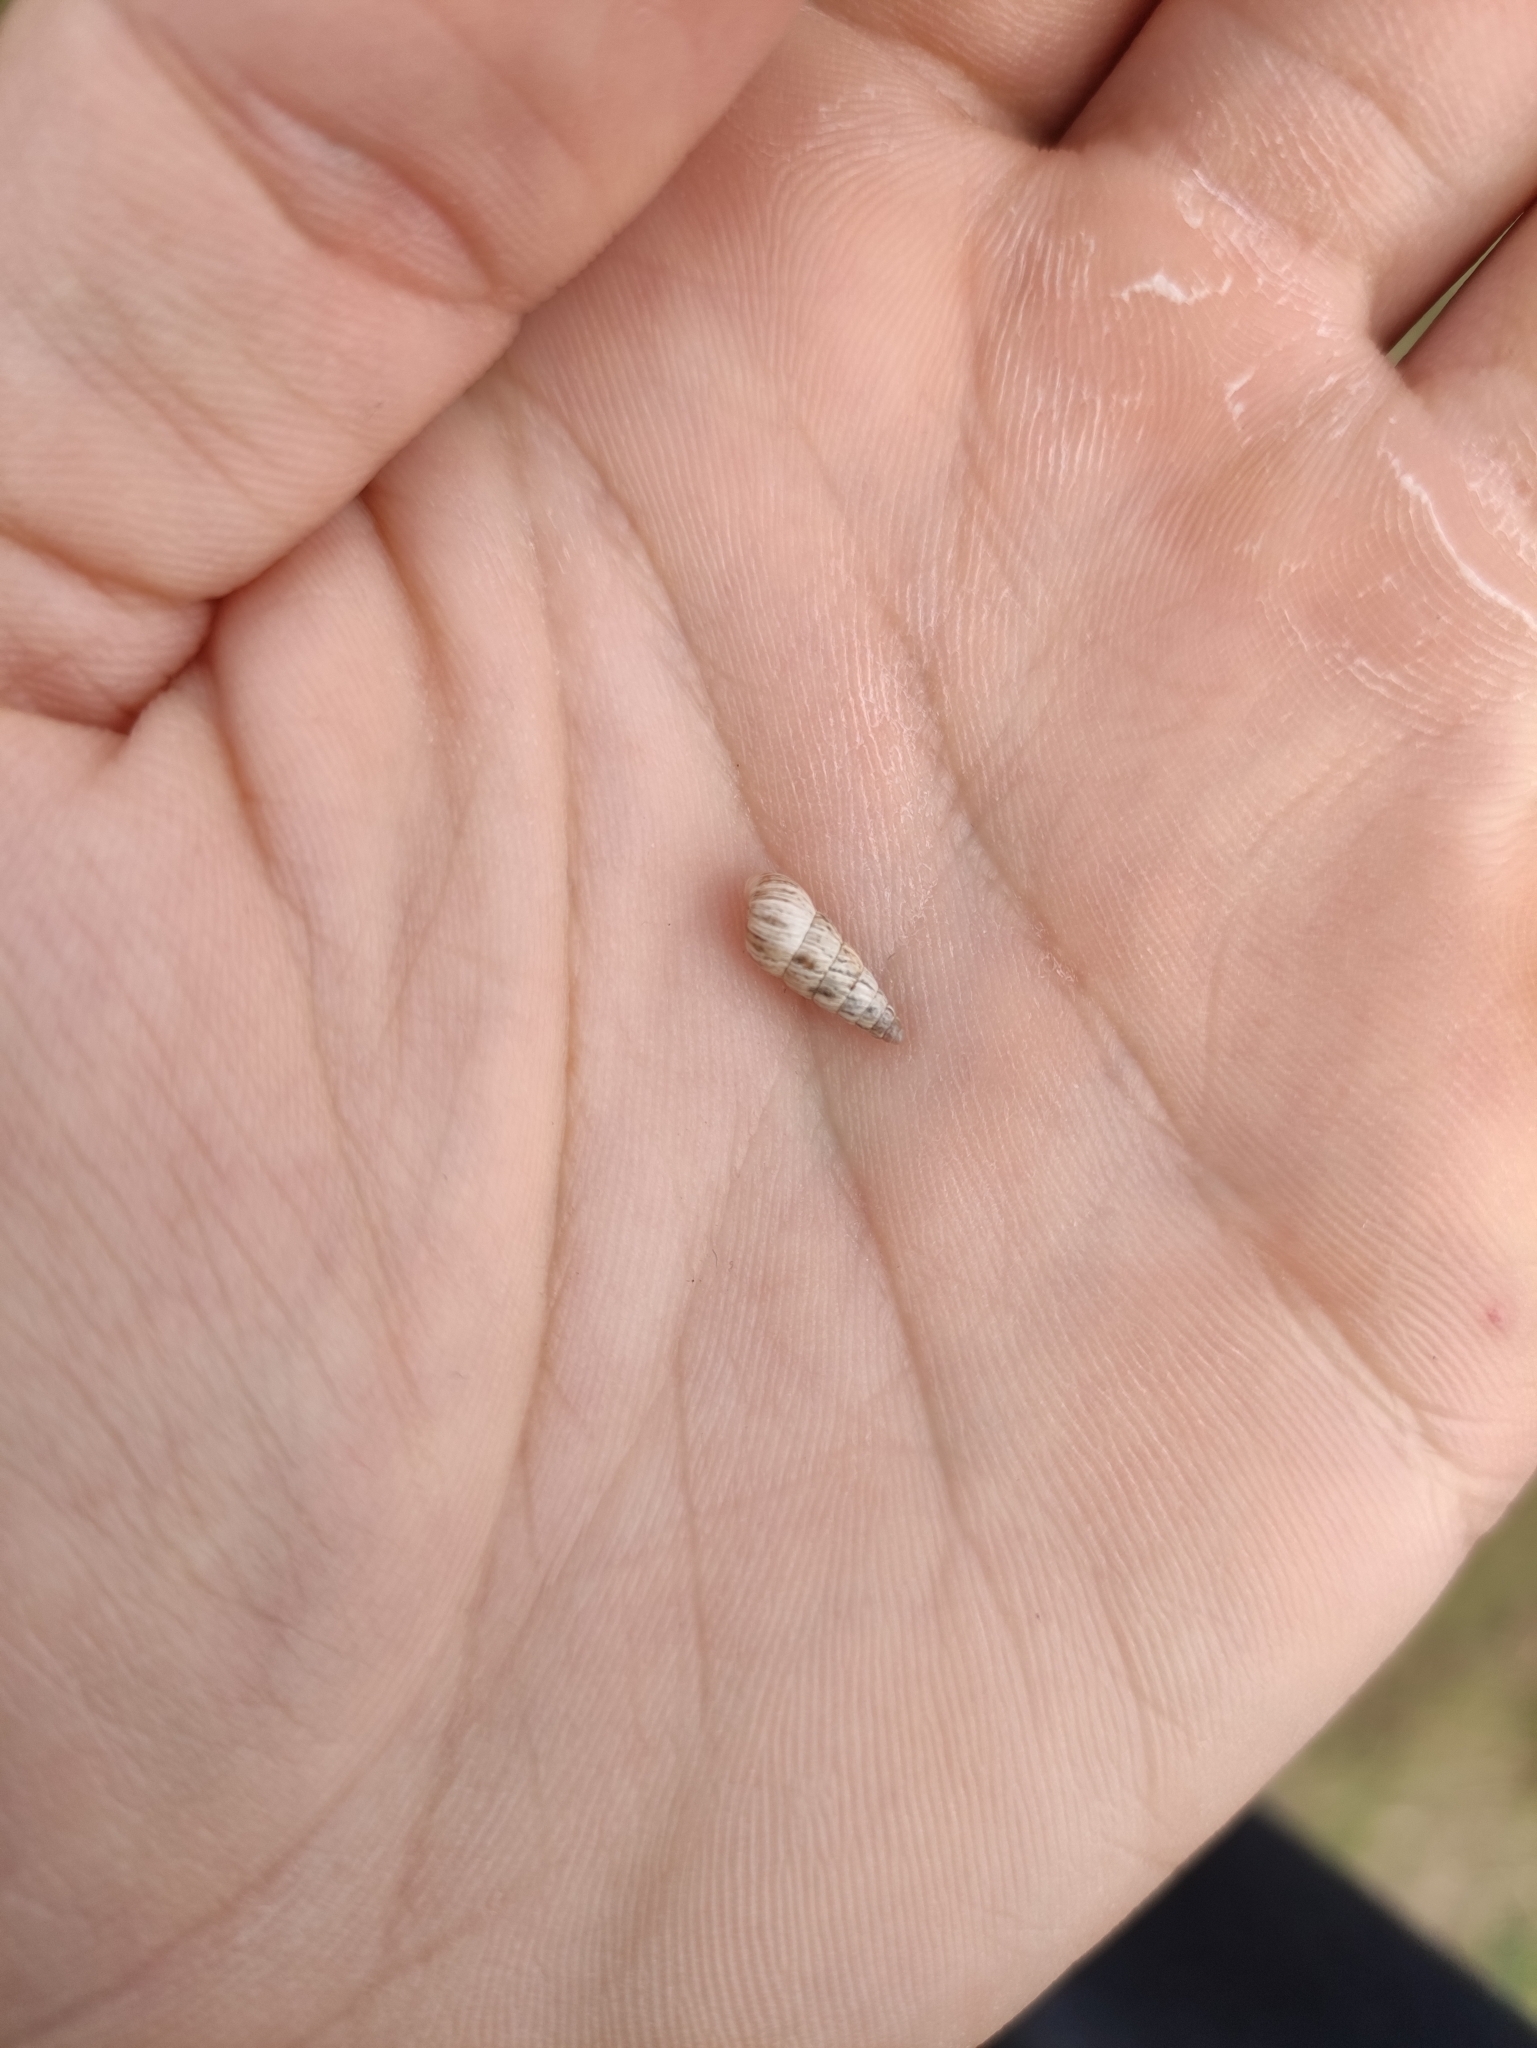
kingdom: Animalia
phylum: Mollusca
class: Gastropoda
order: Stylommatophora
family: Geomitridae
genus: Cochlicella
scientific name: Cochlicella acuta
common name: Pointed snail
